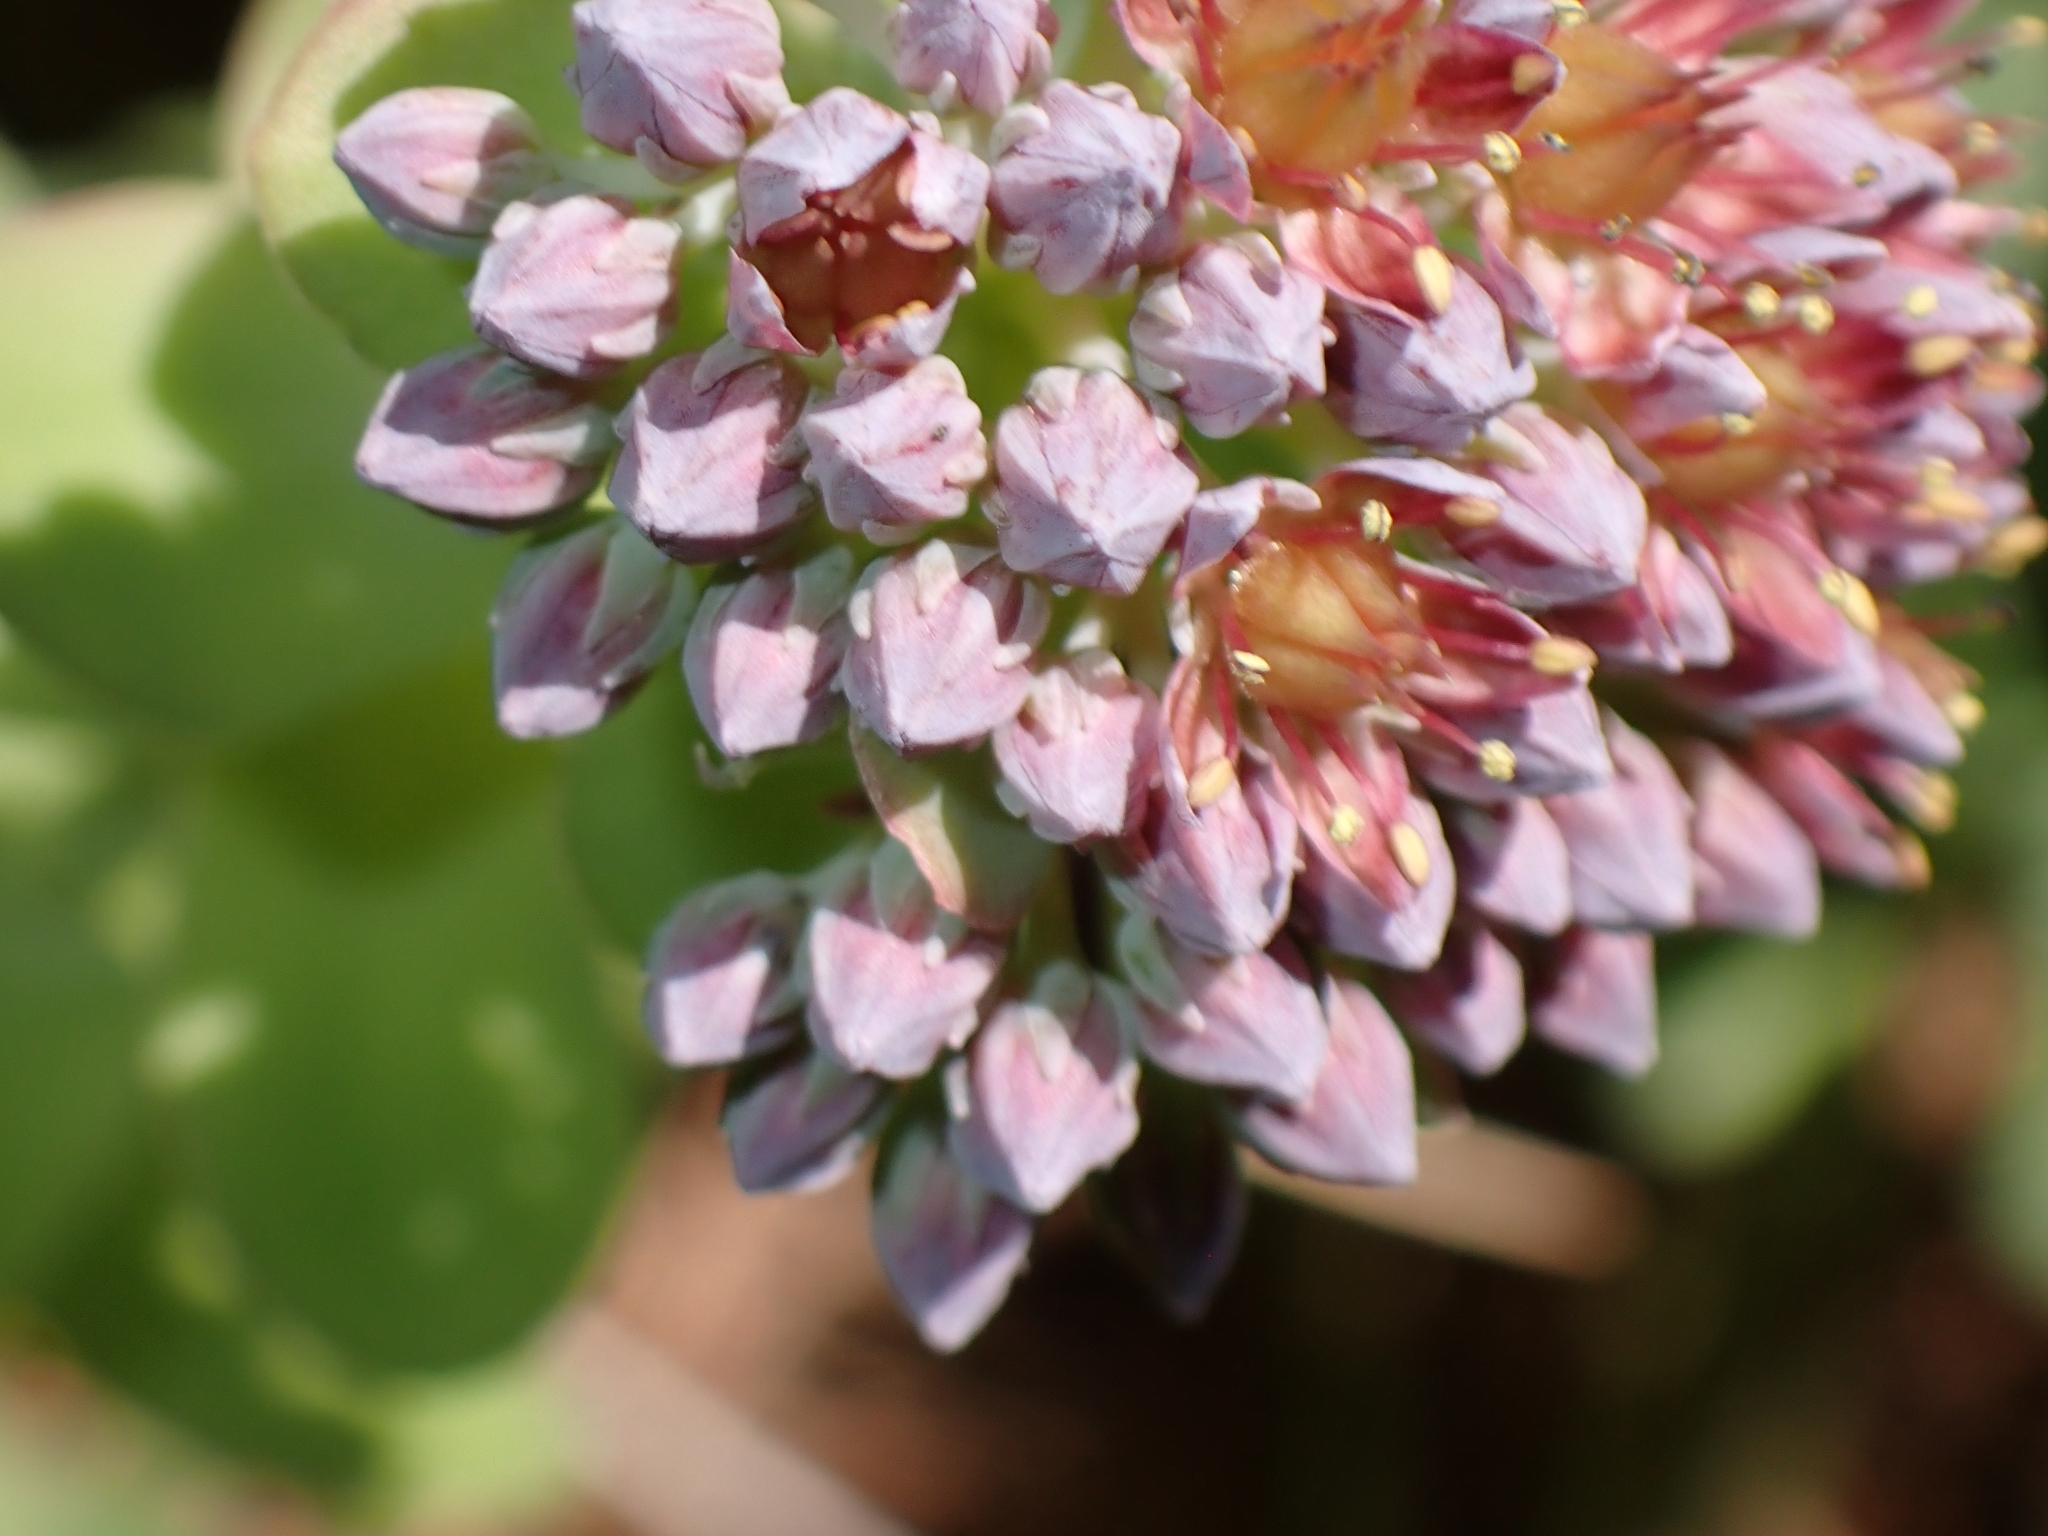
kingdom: Plantae
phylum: Tracheophyta
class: Magnoliopsida
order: Saxifragales
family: Crassulaceae
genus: Hylotelephium
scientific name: Hylotelephium anacampseros
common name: Love-restorer
